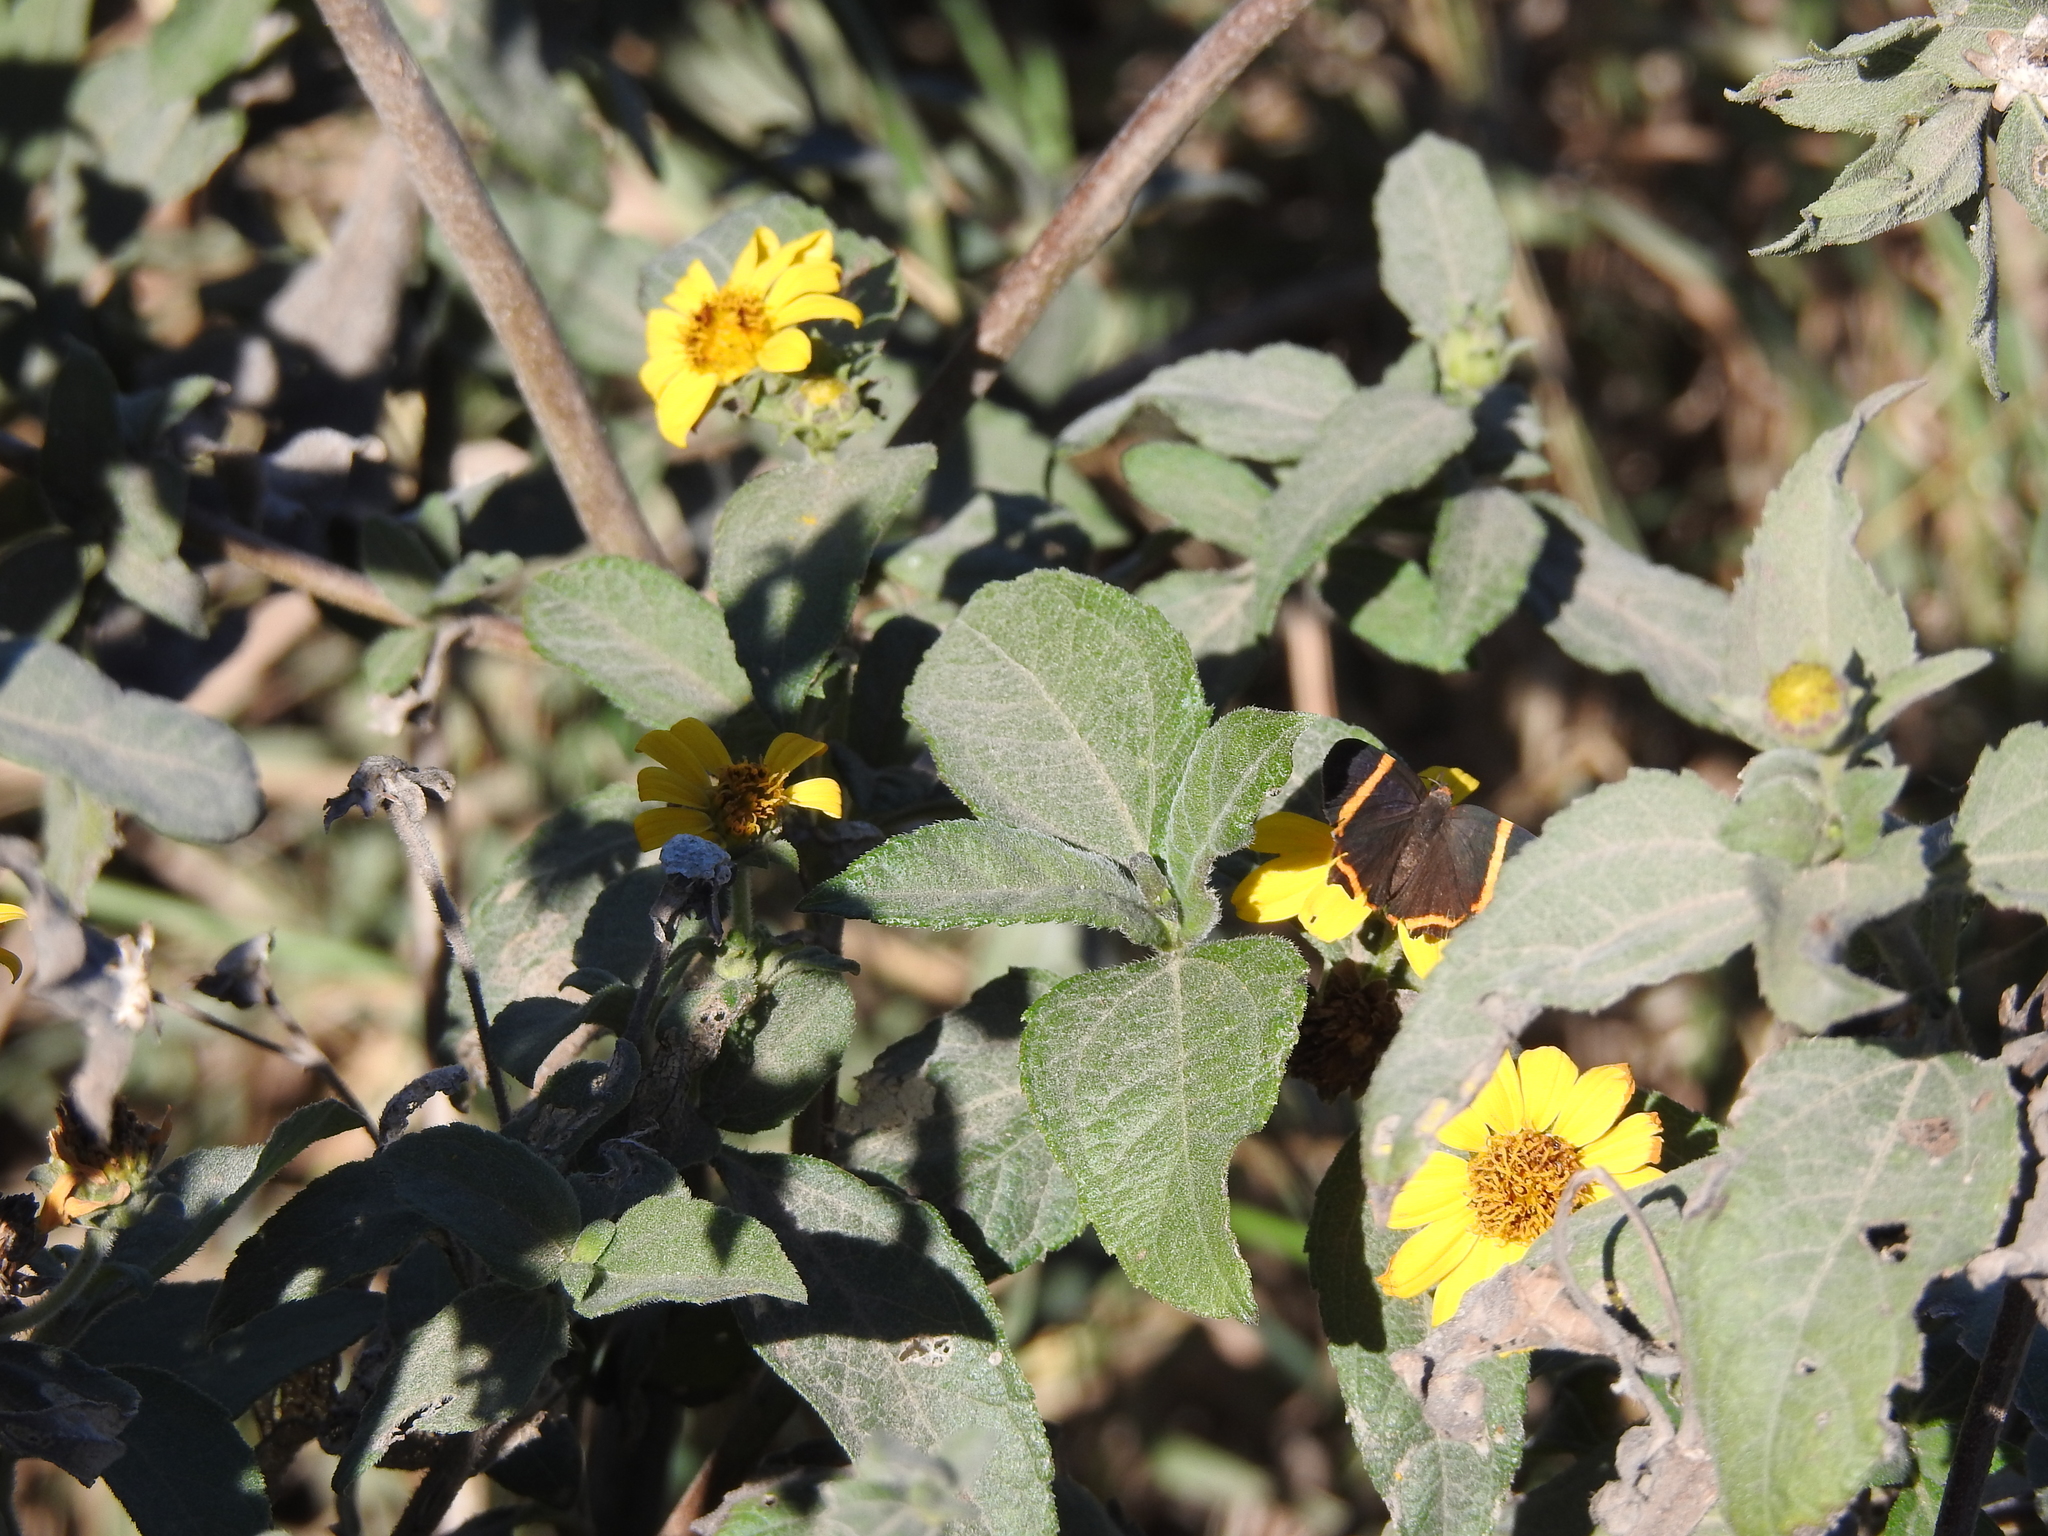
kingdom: Plantae
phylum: Tracheophyta
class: Magnoliopsida
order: Asterales
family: Asteraceae
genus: Wedelia
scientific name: Wedelia silphioides
